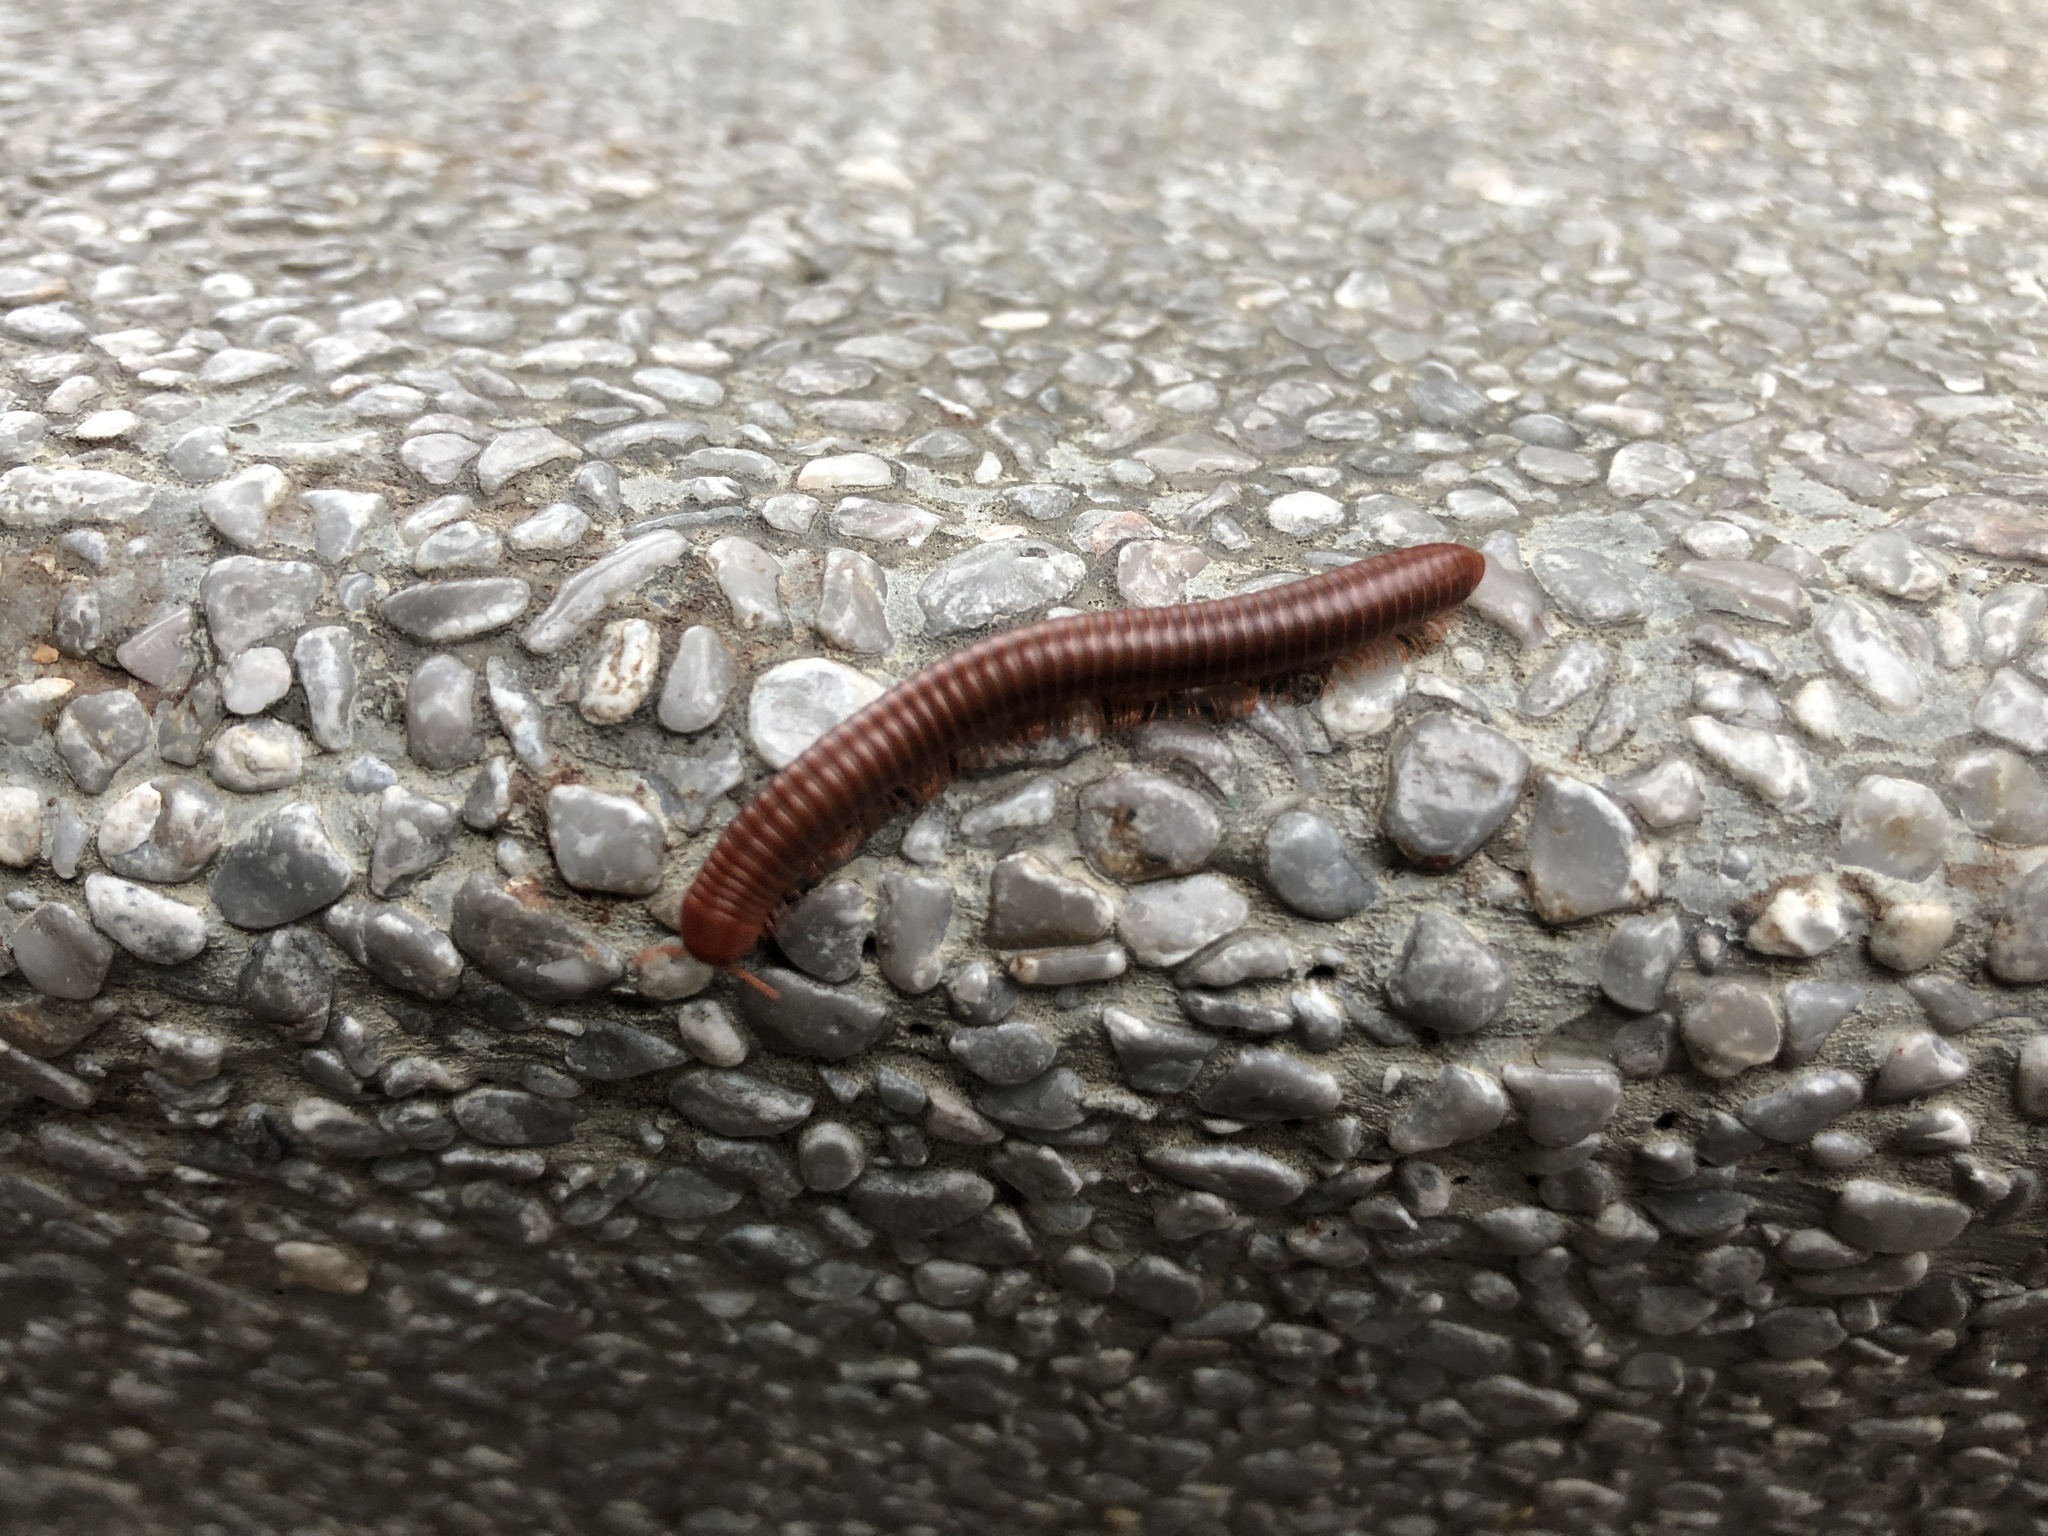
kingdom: Animalia
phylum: Arthropoda
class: Diplopoda
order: Spirobolida
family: Pachybolidae
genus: Trigoniulus
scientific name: Trigoniulus corallinus
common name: Millipede
